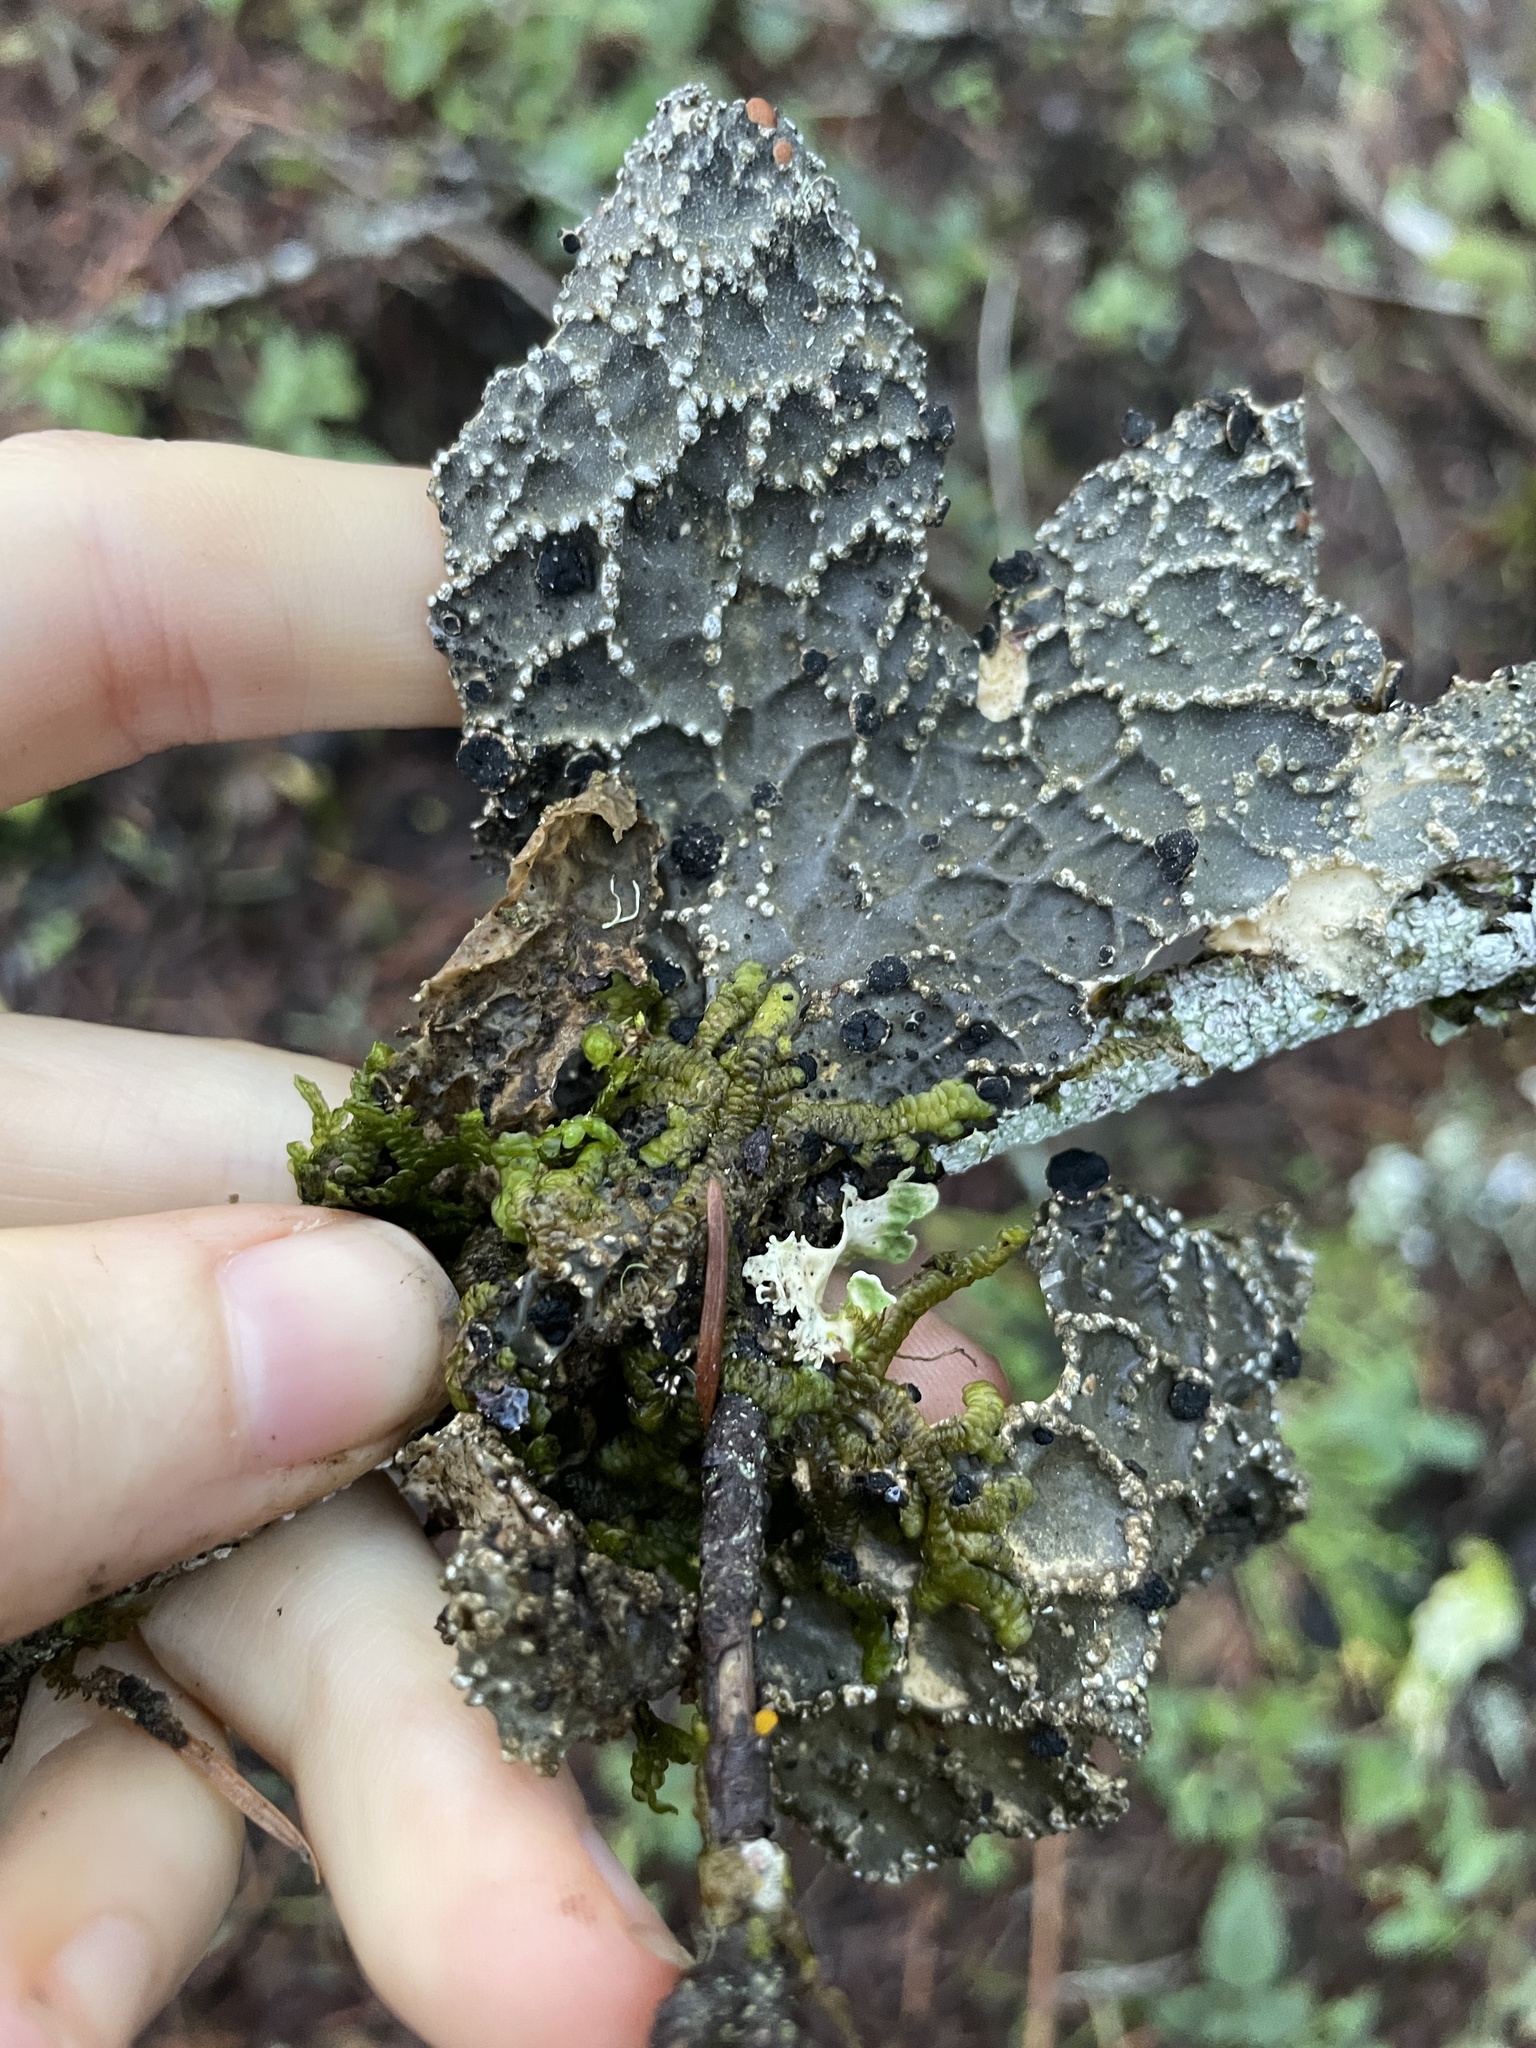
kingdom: Fungi
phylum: Ascomycota
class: Lecanoromycetes
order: Peltigerales
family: Lobariaceae
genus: Lobaria
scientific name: Lobaria anomala
